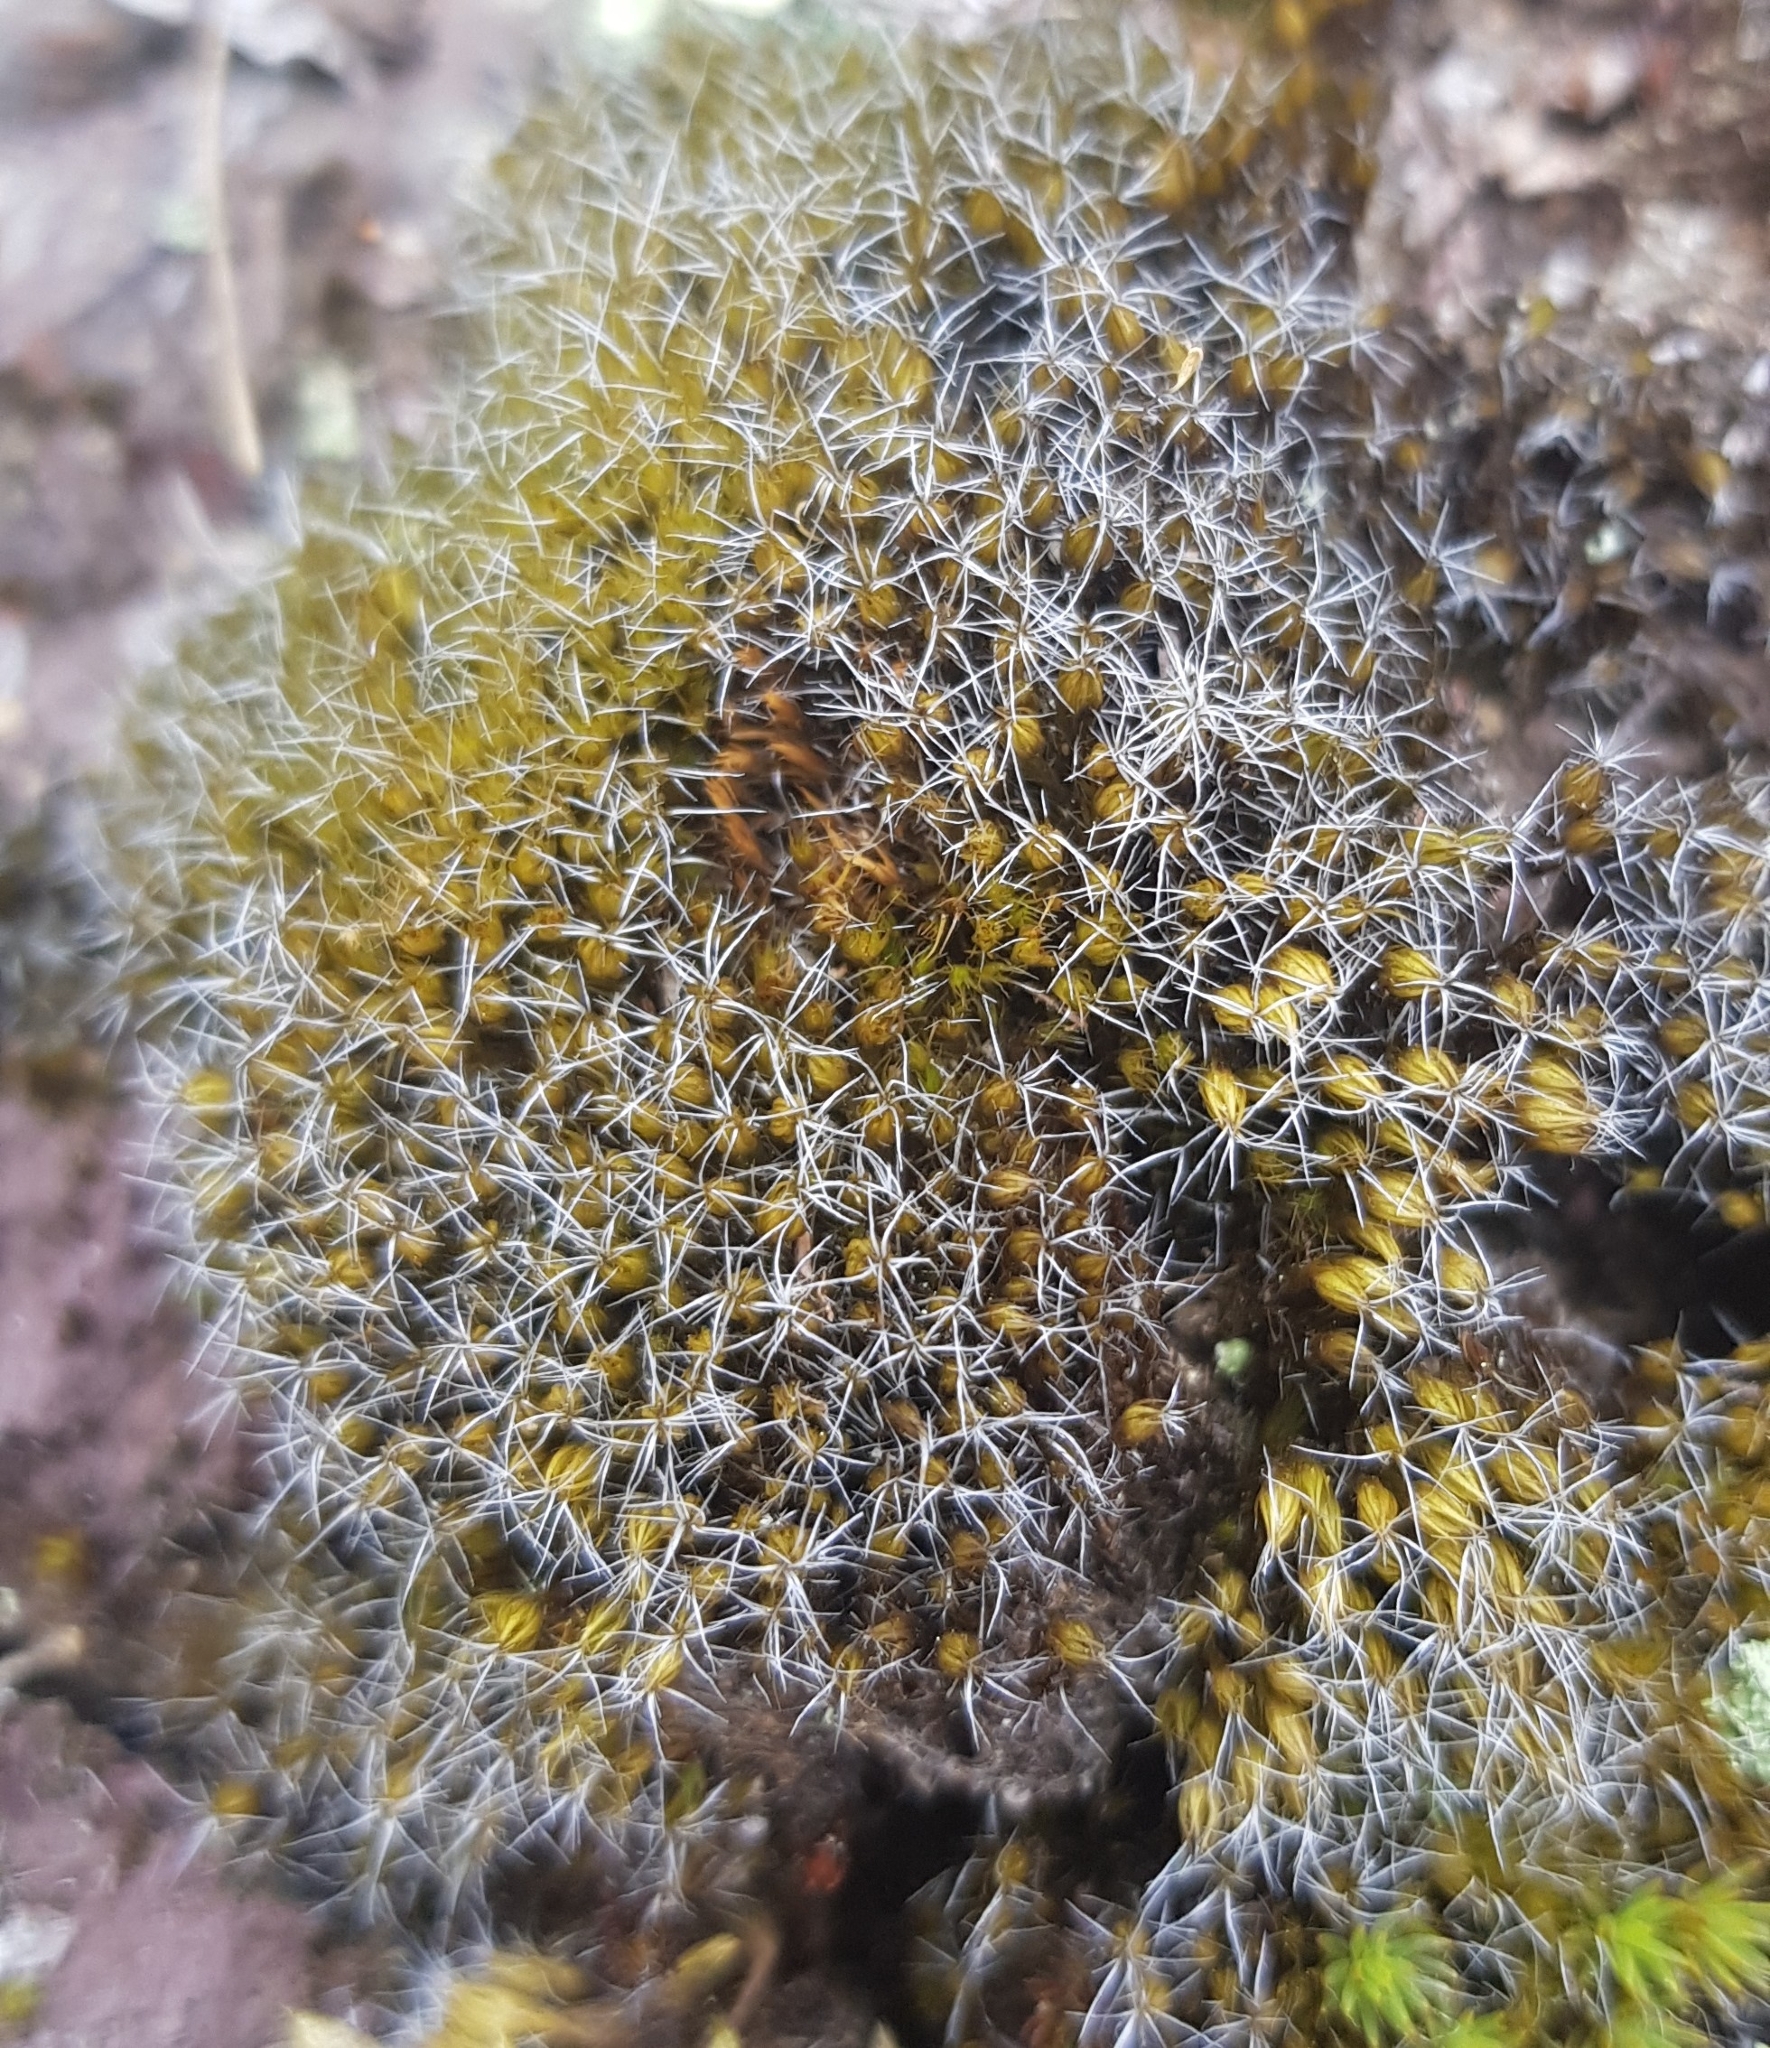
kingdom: Plantae
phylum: Bryophyta
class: Bryopsida
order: Dicranales
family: Leucobryaceae
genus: Campylopus
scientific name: Campylopus introflexus
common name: Heath star moss
